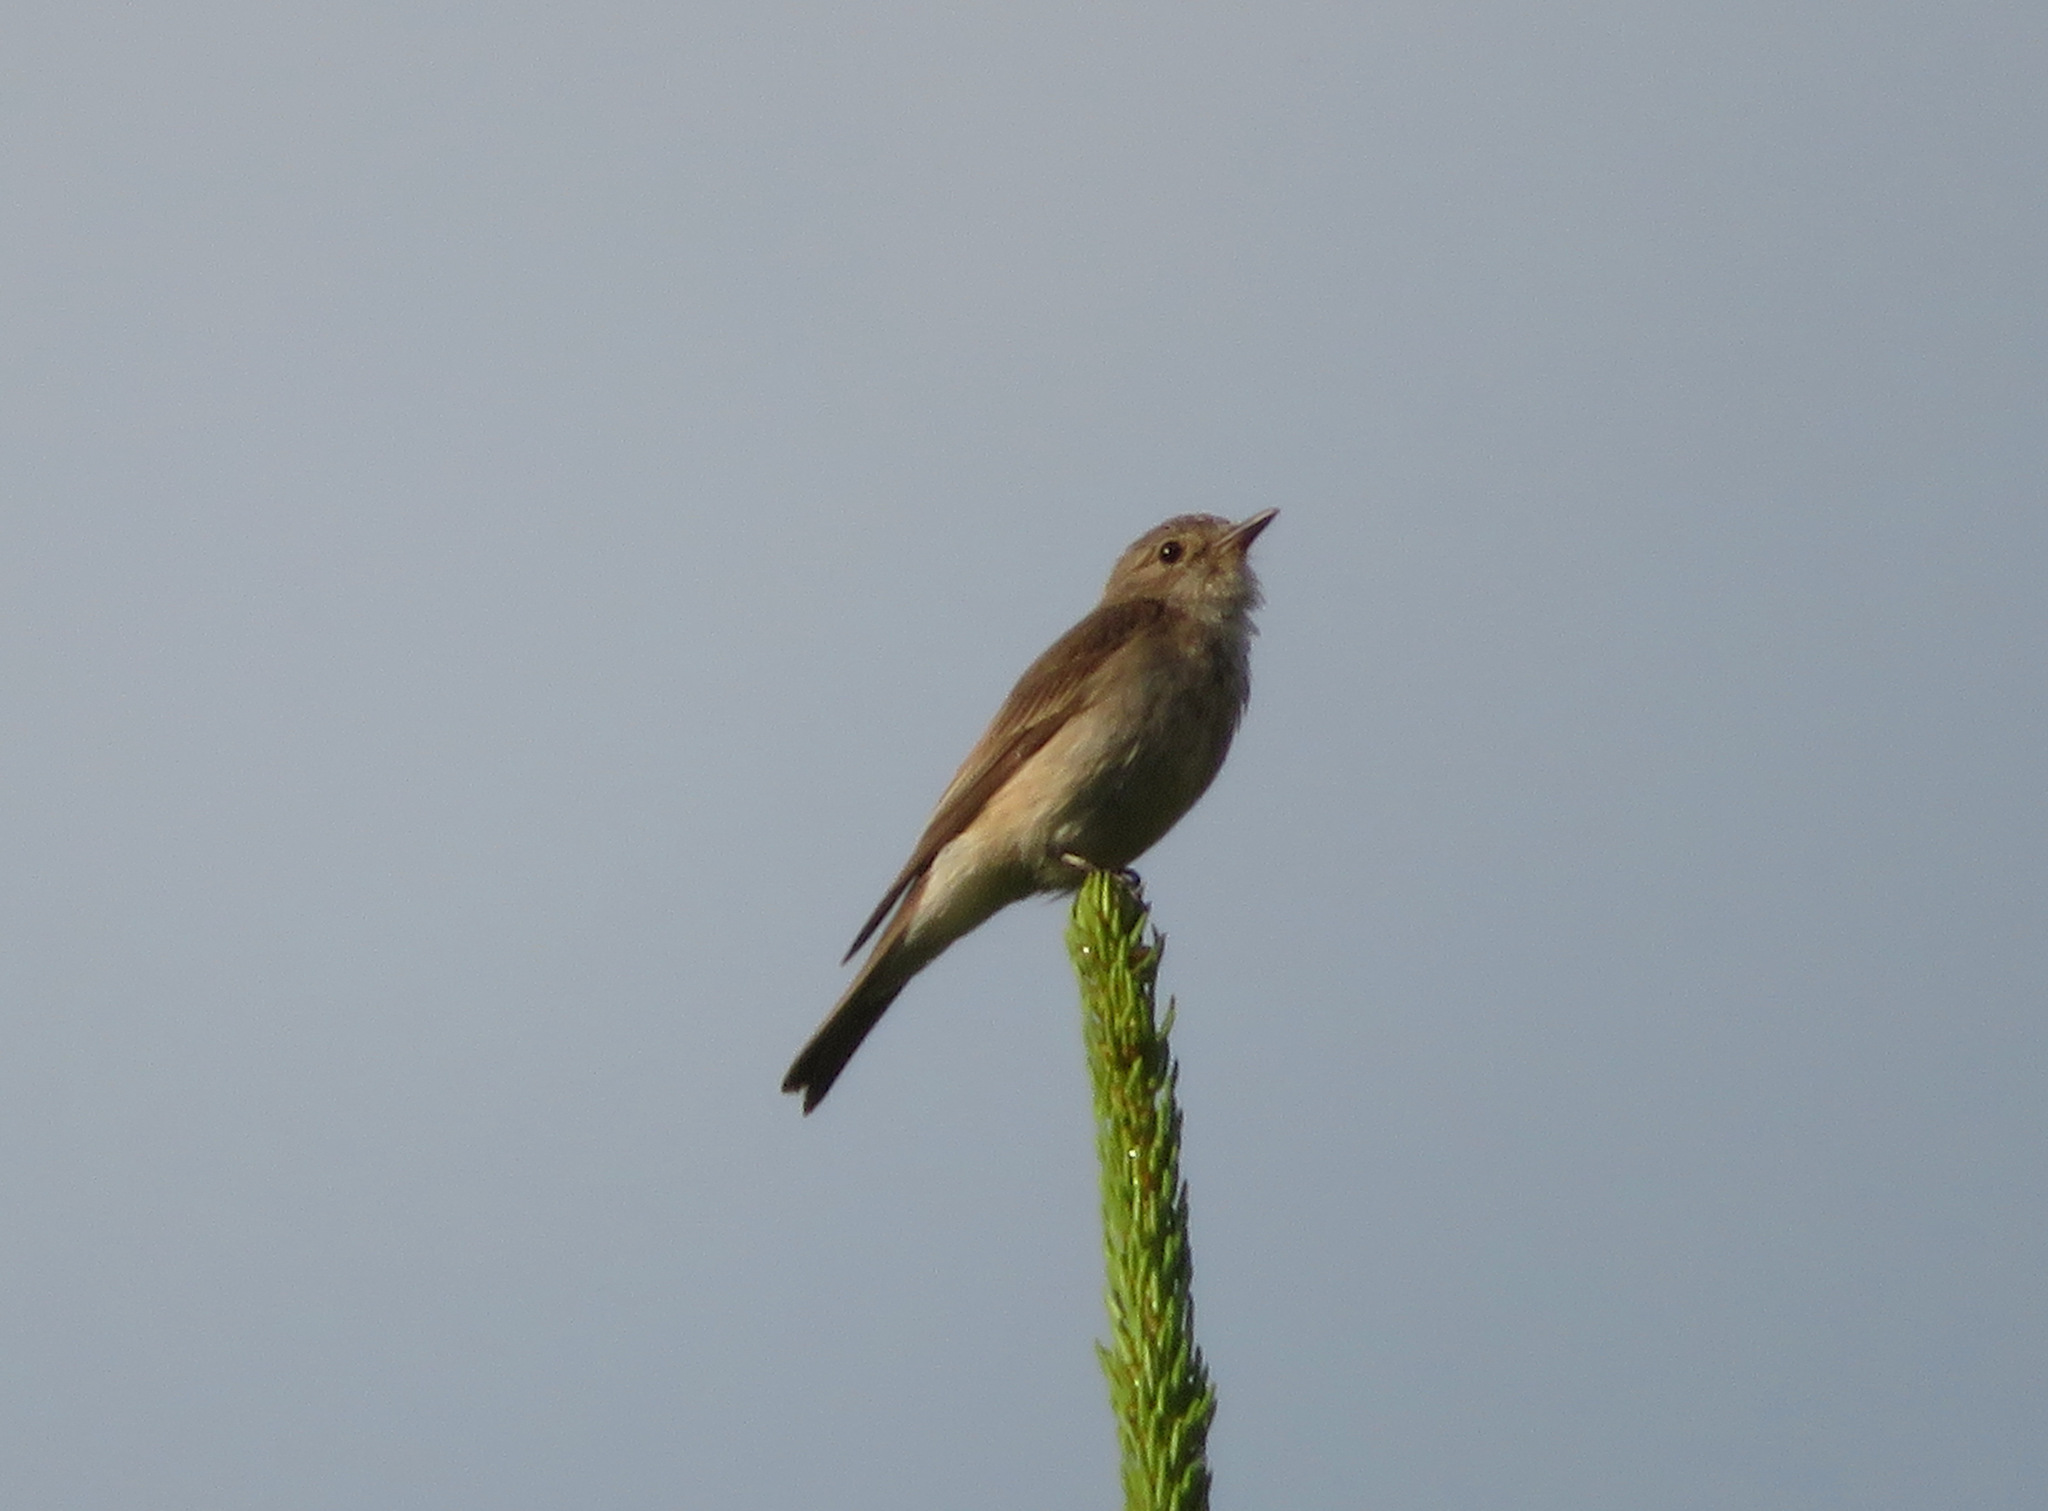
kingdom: Animalia
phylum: Chordata
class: Aves
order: Passeriformes
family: Muscicapidae
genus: Muscicapa
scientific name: Muscicapa striata
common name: Spotted flycatcher
